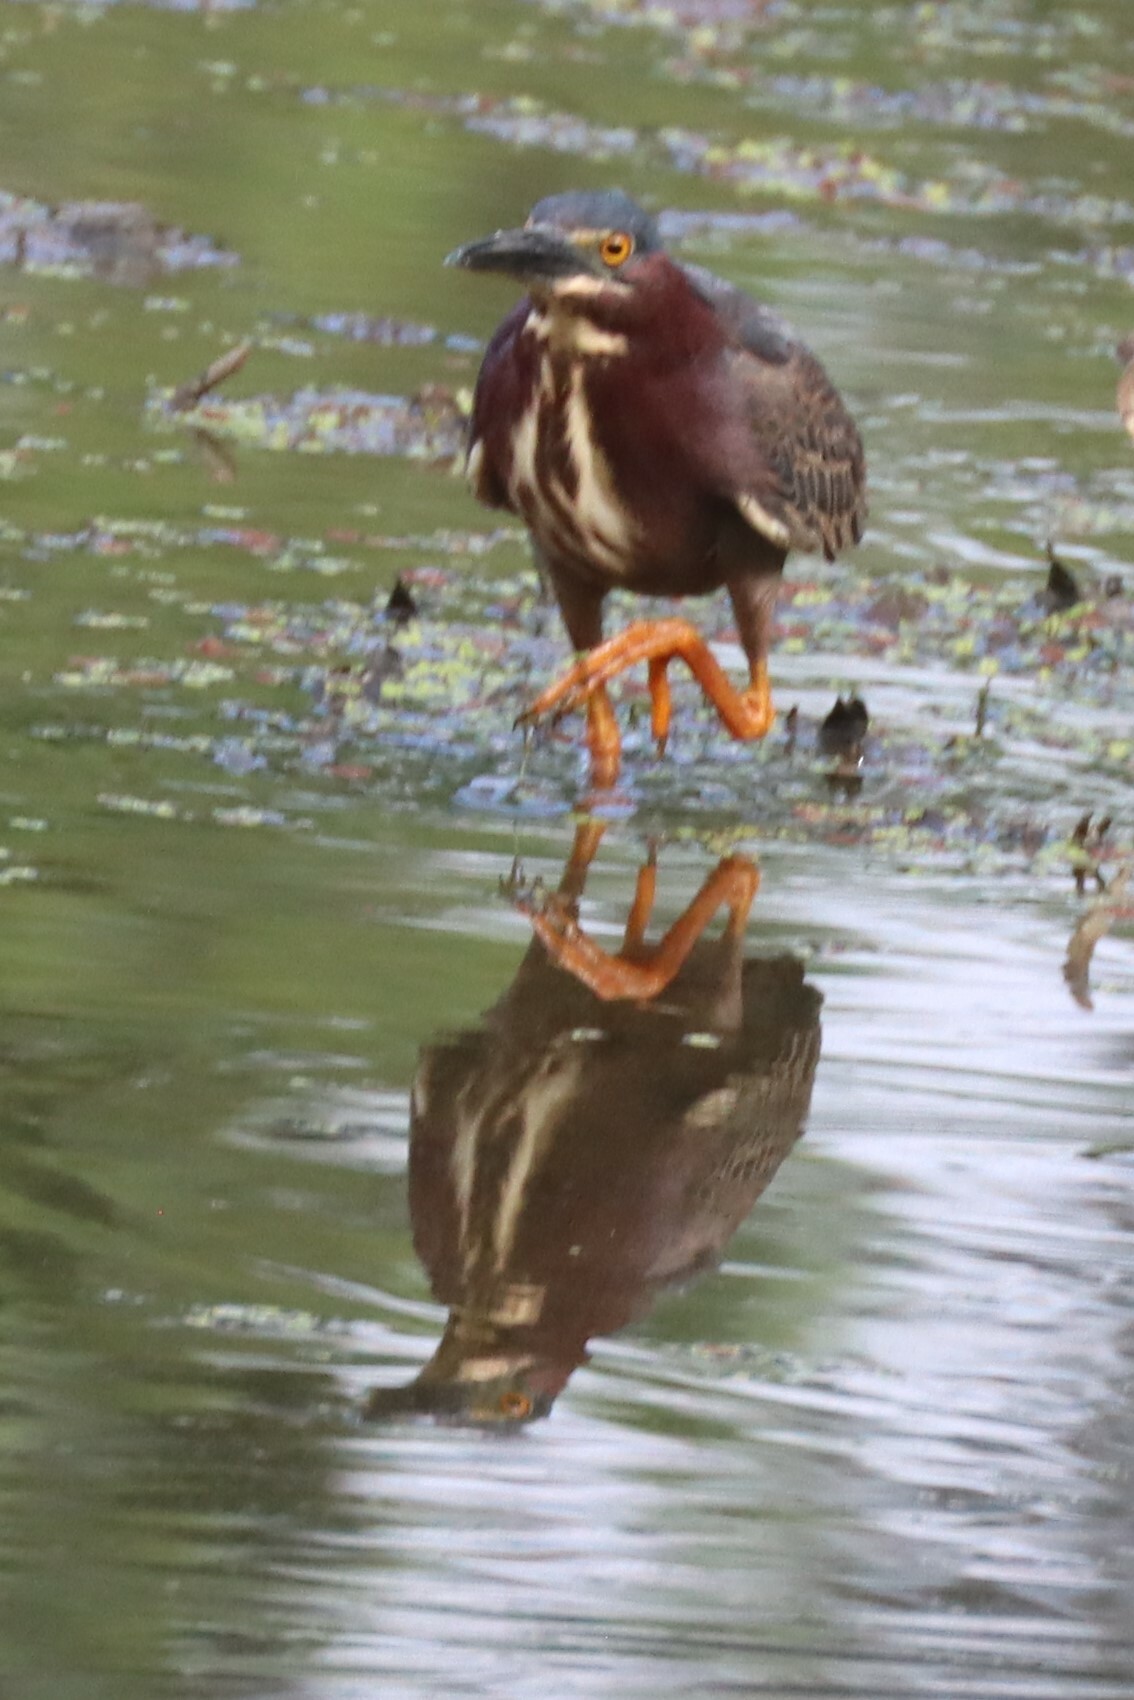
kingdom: Animalia
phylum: Chordata
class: Aves
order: Pelecaniformes
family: Ardeidae
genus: Butorides
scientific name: Butorides virescens
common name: Green heron
